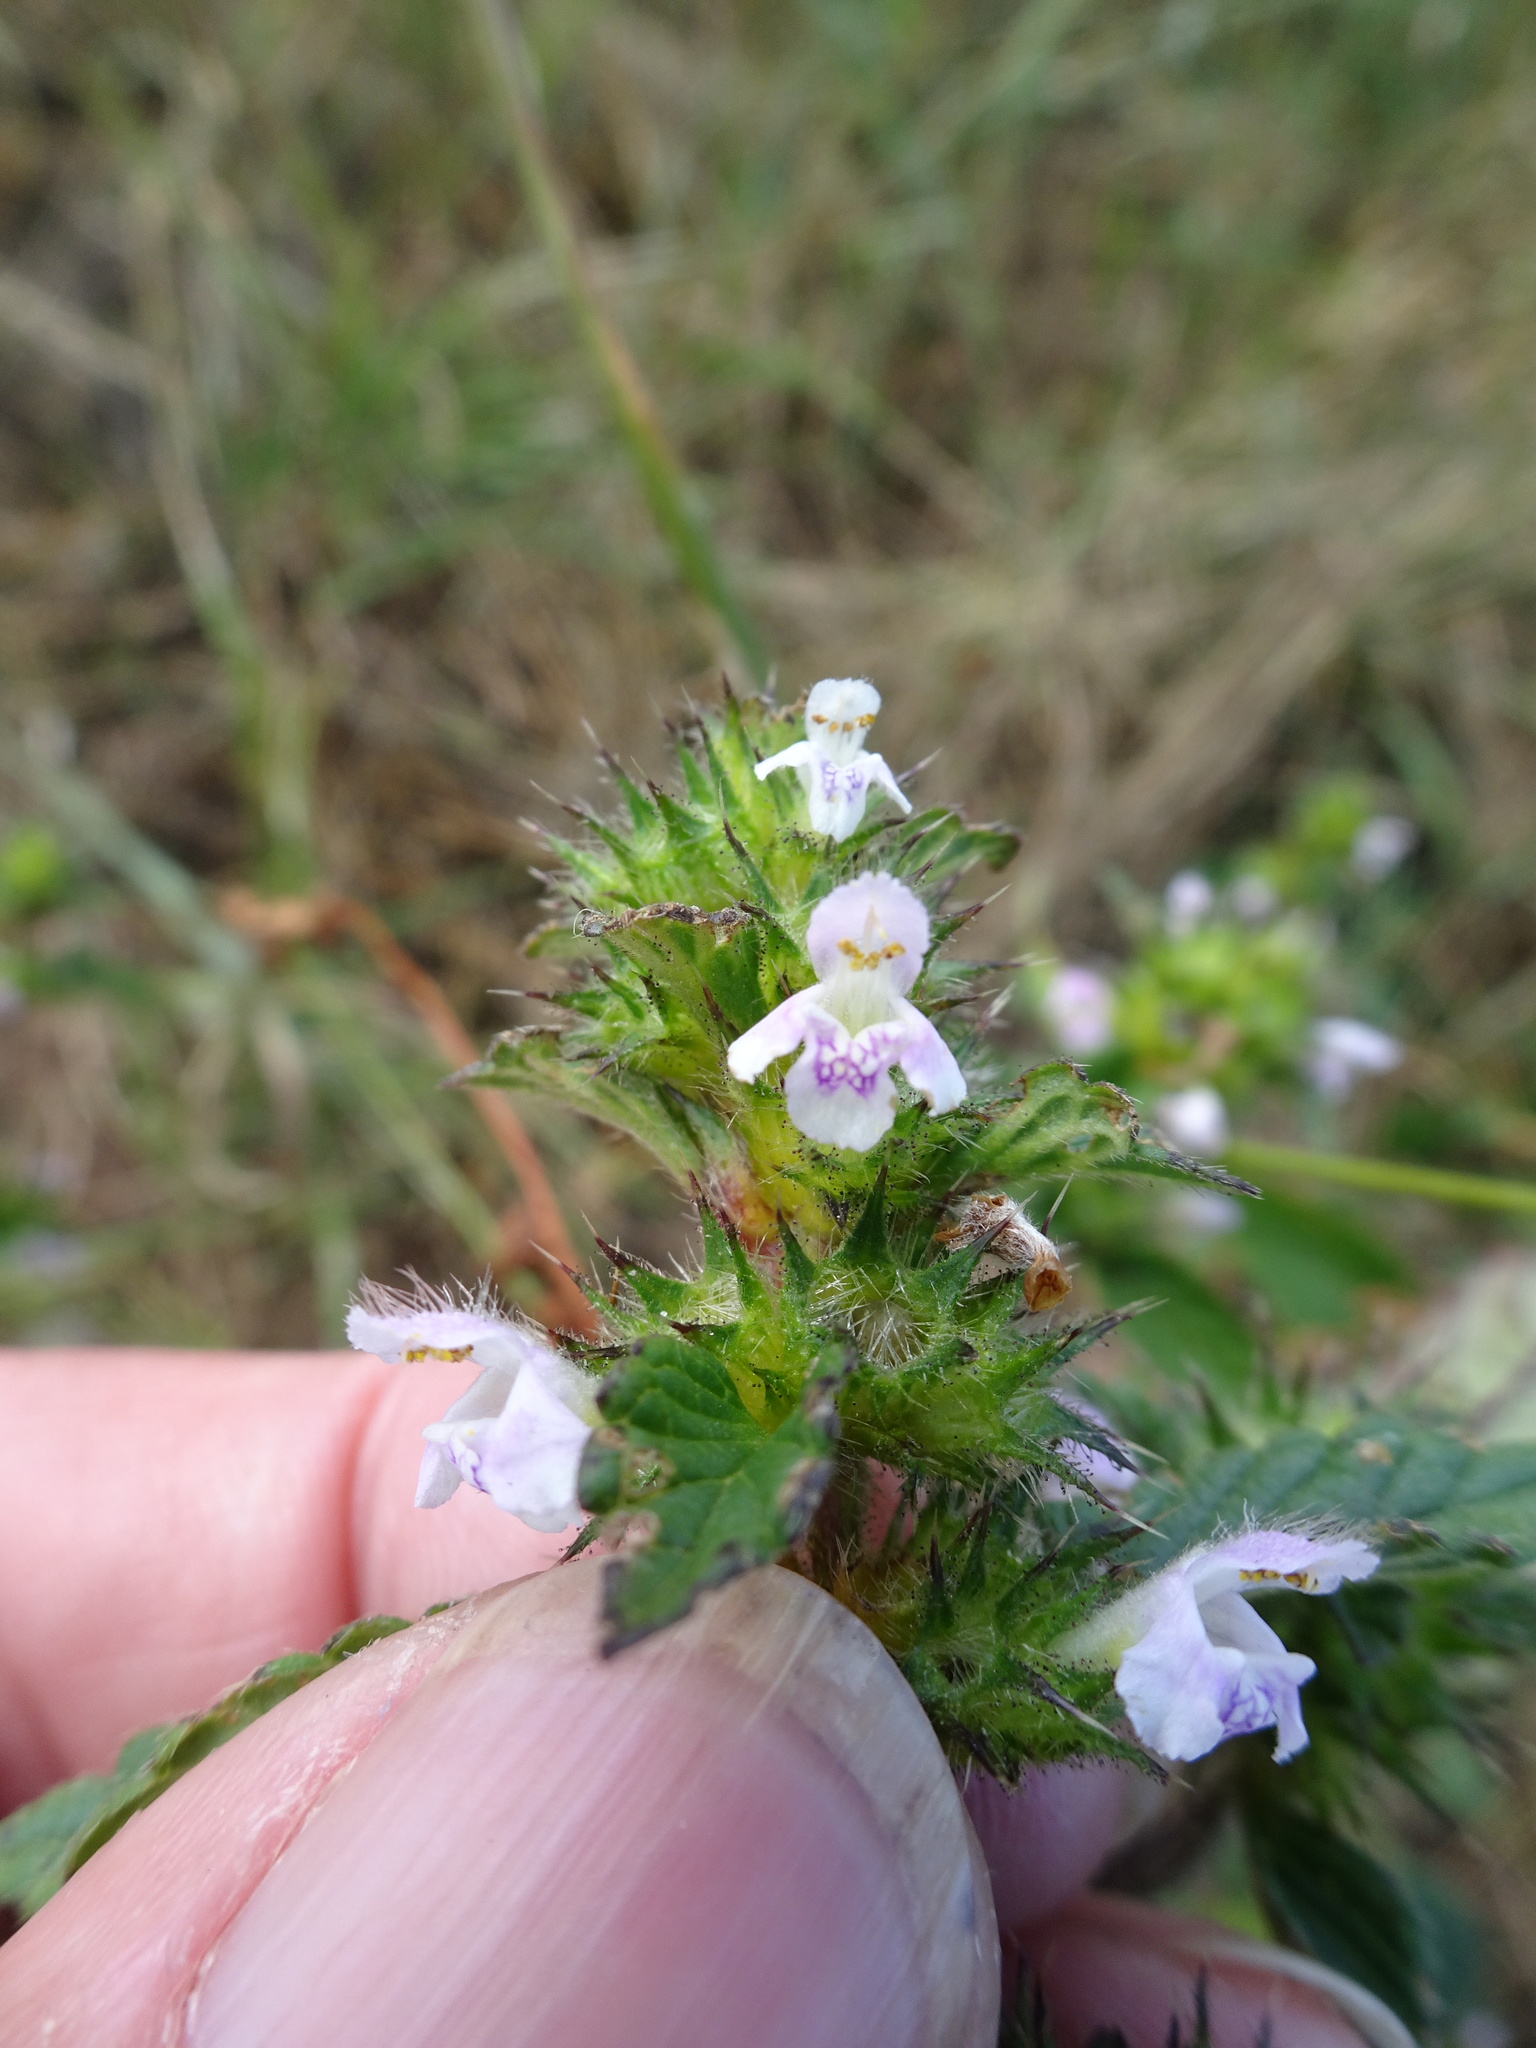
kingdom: Plantae
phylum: Tracheophyta
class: Magnoliopsida
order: Lamiales
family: Lamiaceae
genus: Galeopsis
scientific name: Galeopsis tetrahit
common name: Common hemp-nettle
